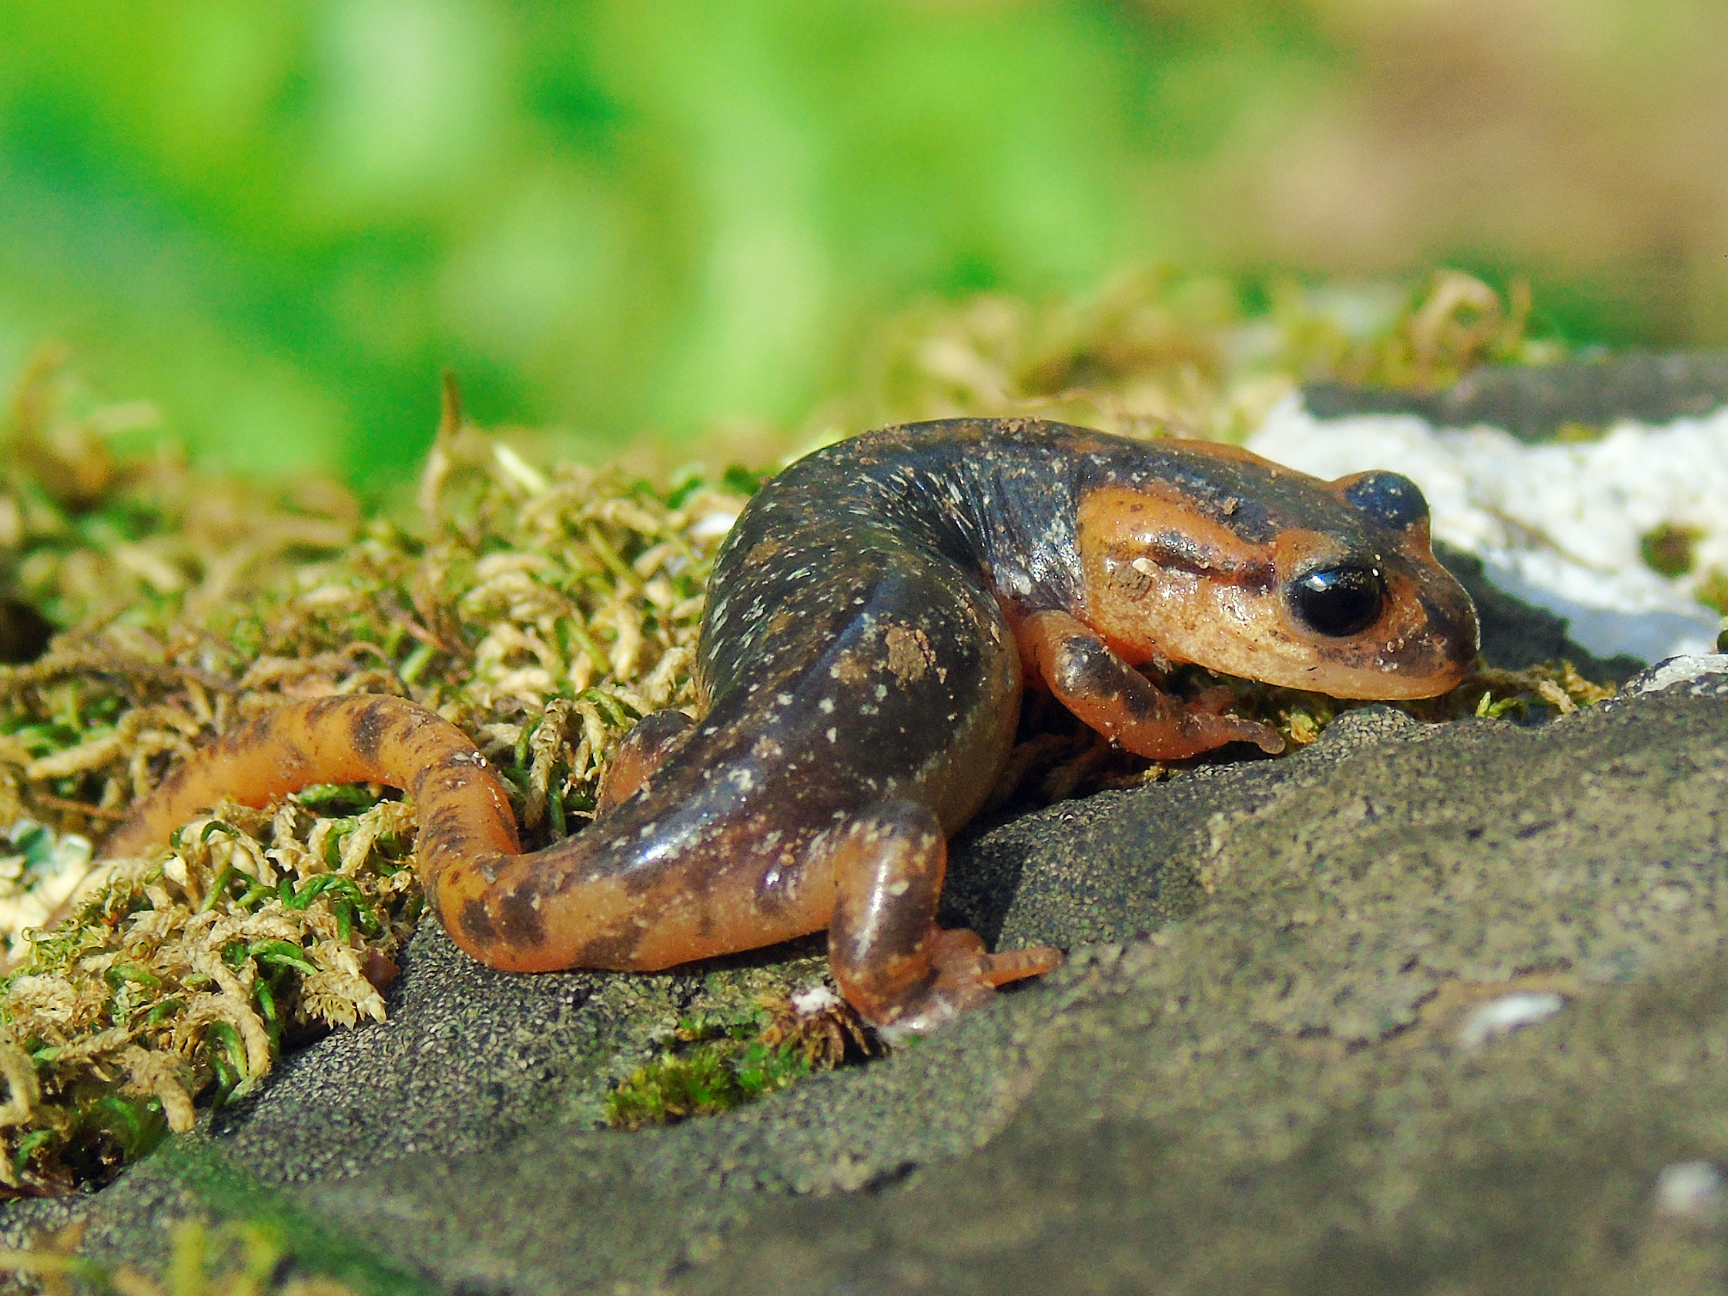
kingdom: Animalia
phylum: Chordata
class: Amphibia
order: Caudata
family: Salamandridae
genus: Lyciasalamandra
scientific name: Lyciasalamandra fazilae
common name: Fazila's salamander
